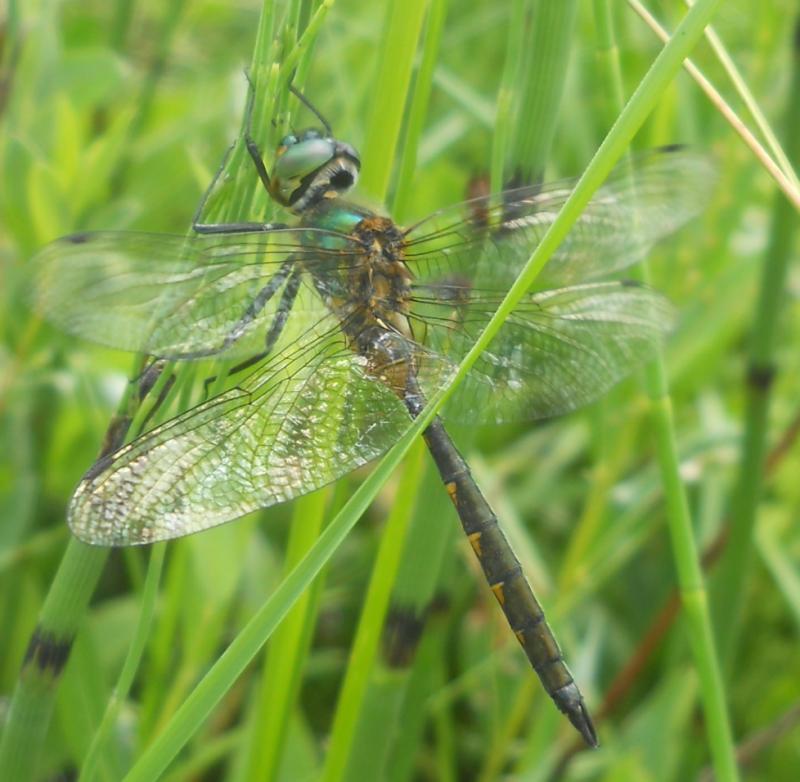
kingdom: Animalia
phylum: Arthropoda
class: Insecta
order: Odonata
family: Corduliidae
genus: Somatochlora
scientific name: Somatochlora flavomaculata
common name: Yellow-spotted emerald
